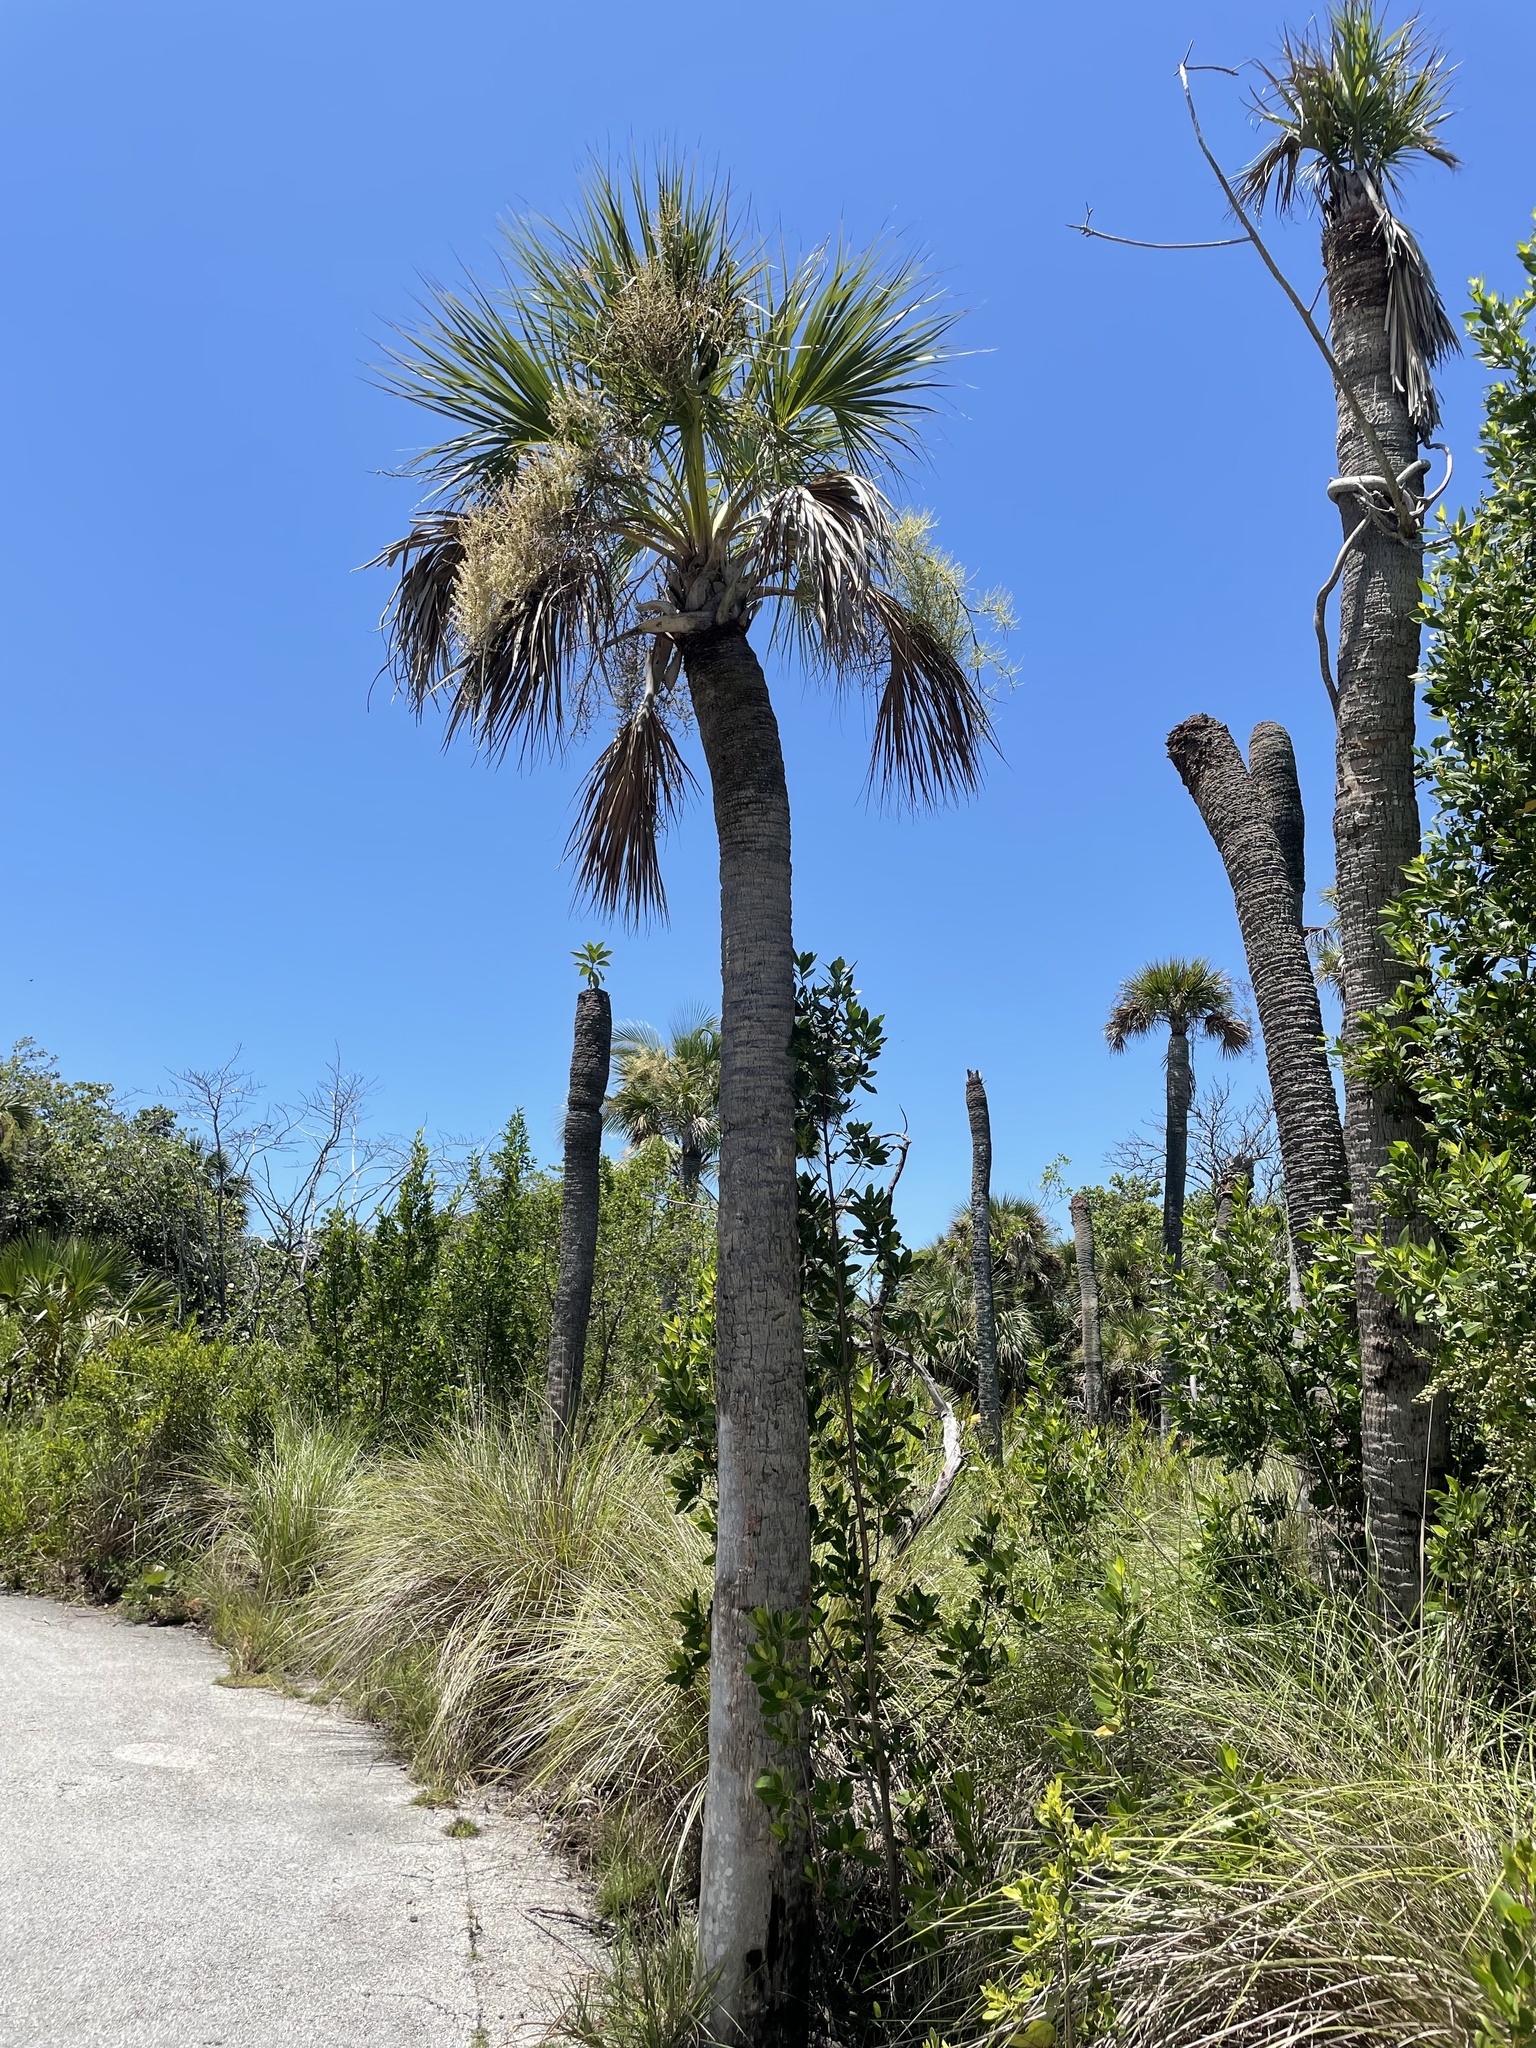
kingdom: Plantae
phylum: Tracheophyta
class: Liliopsida
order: Arecales
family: Arecaceae
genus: Sabal
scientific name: Sabal palmetto
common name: Blue palmetto
